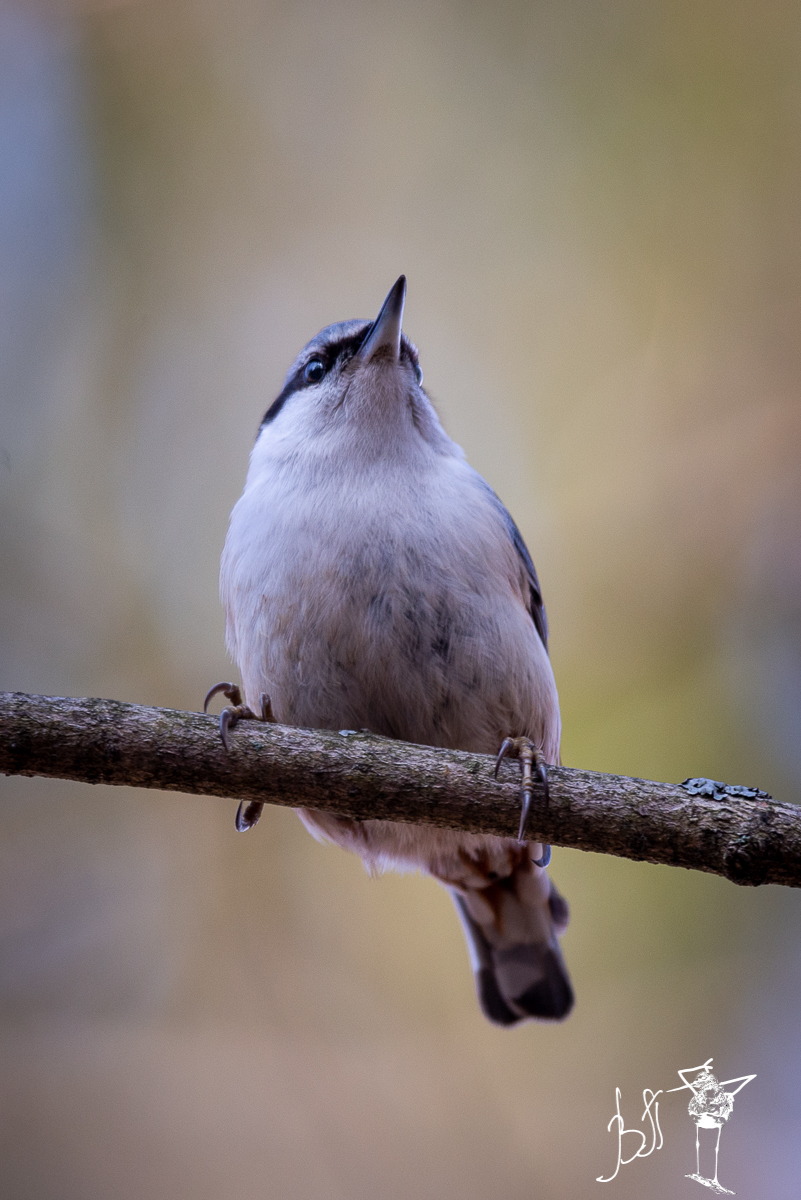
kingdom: Animalia
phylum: Chordata
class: Aves
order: Passeriformes
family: Sittidae
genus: Sitta
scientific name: Sitta europaea
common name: Eurasian nuthatch
